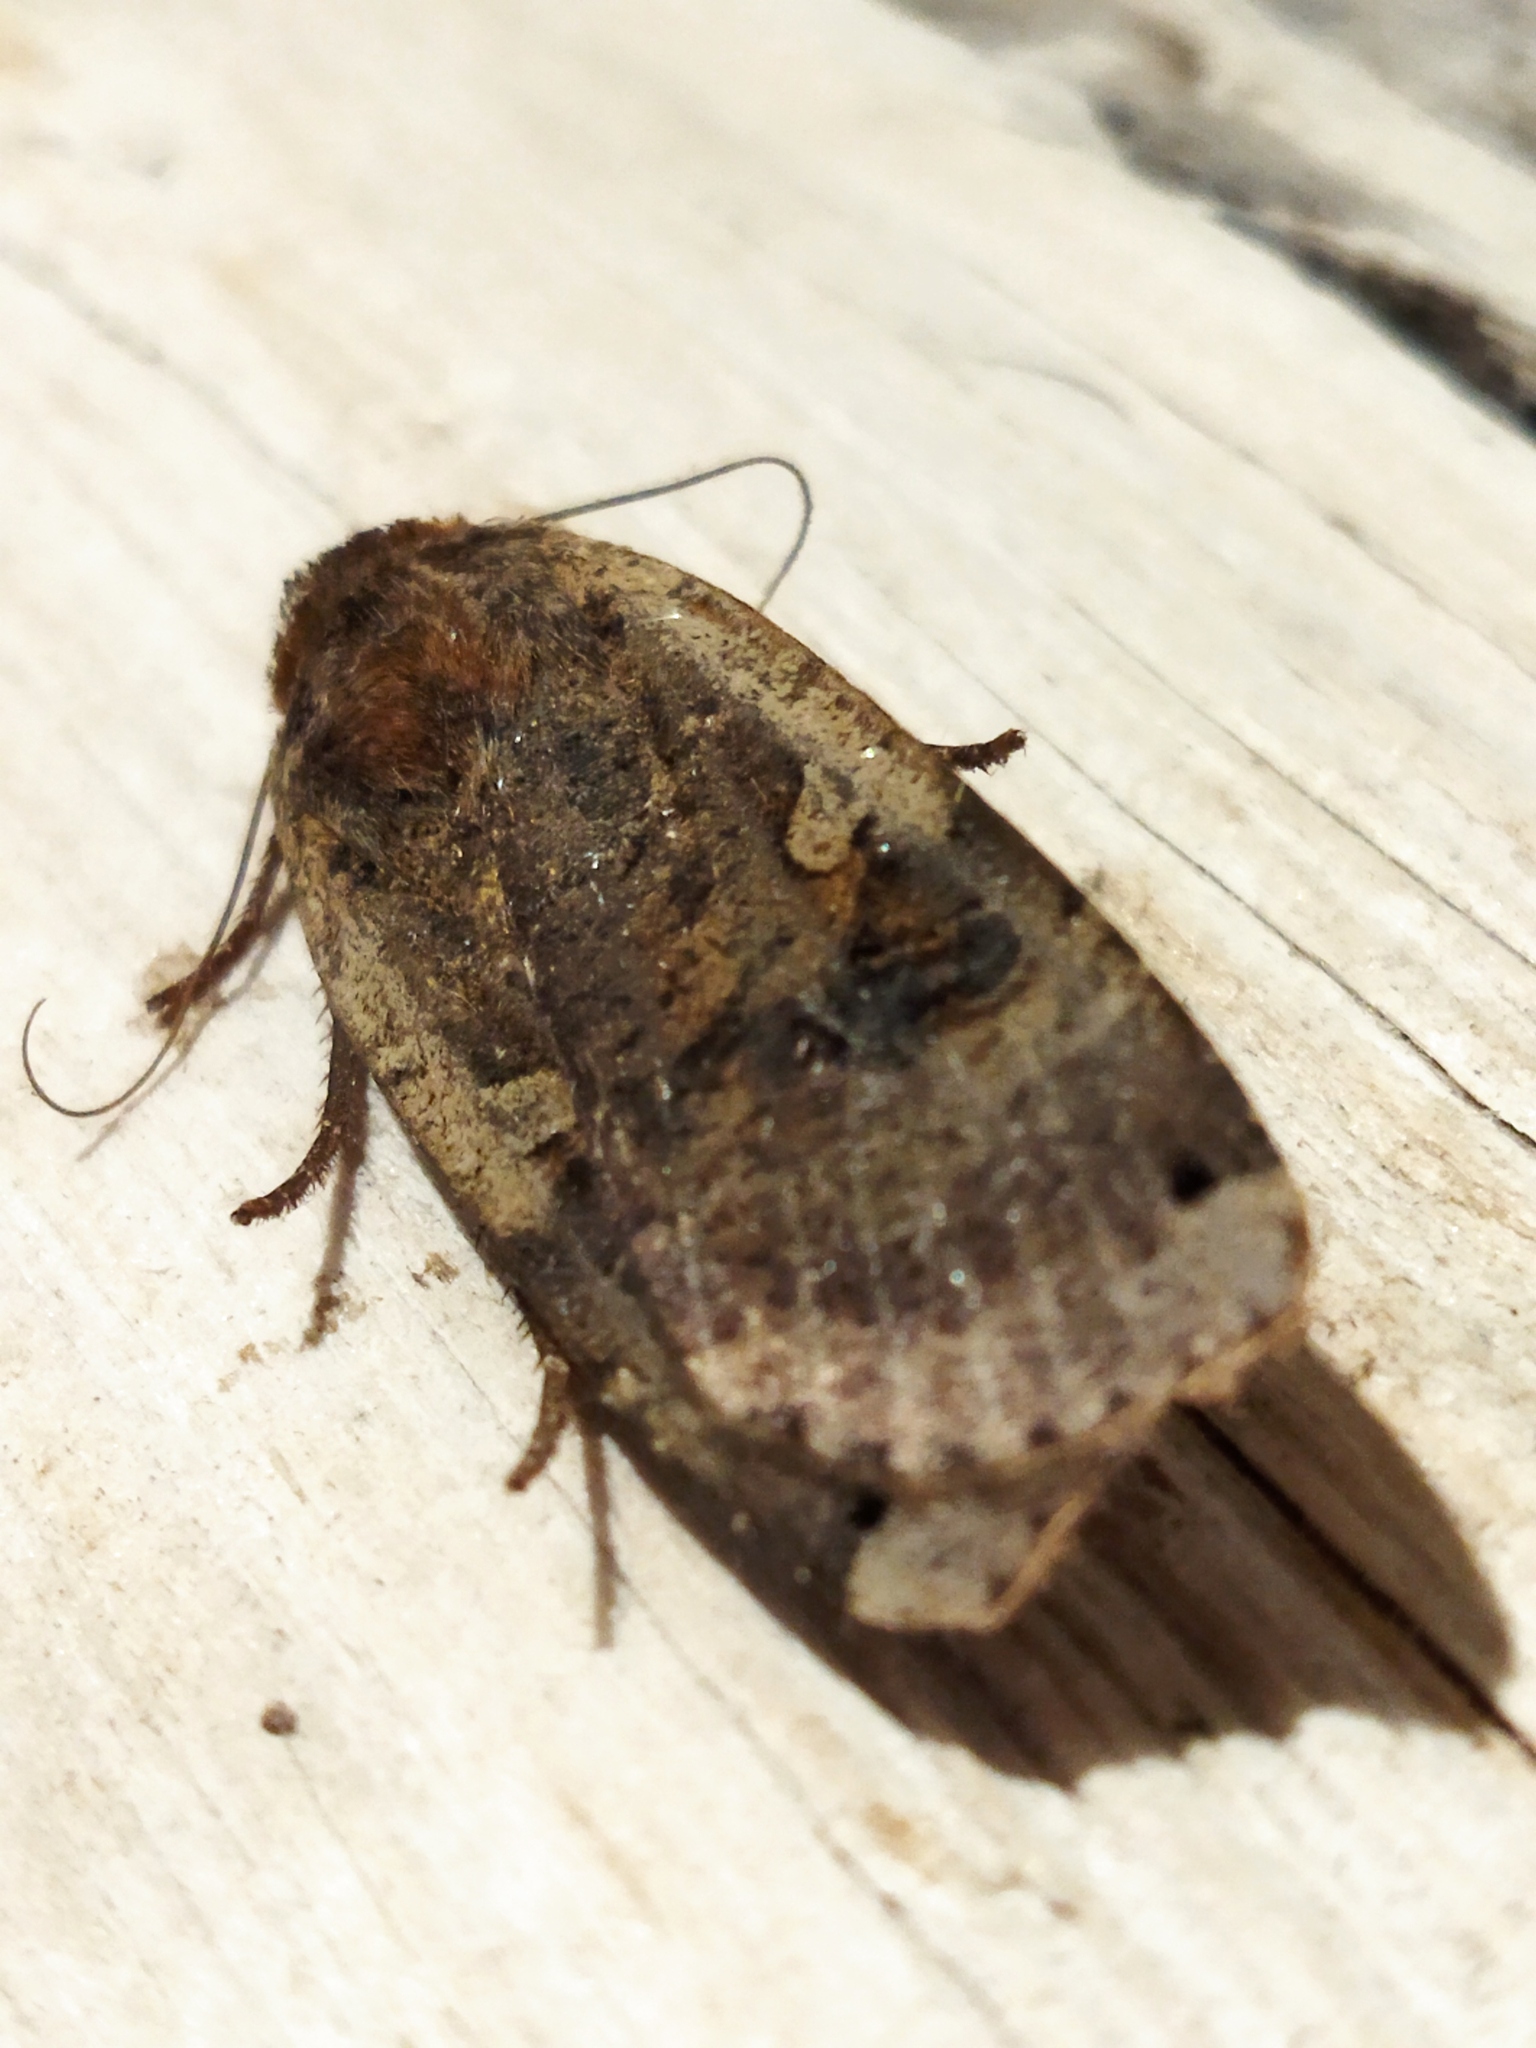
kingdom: Animalia
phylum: Arthropoda
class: Insecta
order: Lepidoptera
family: Noctuidae
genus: Noctua
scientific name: Noctua pronuba
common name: Large yellow underwing
